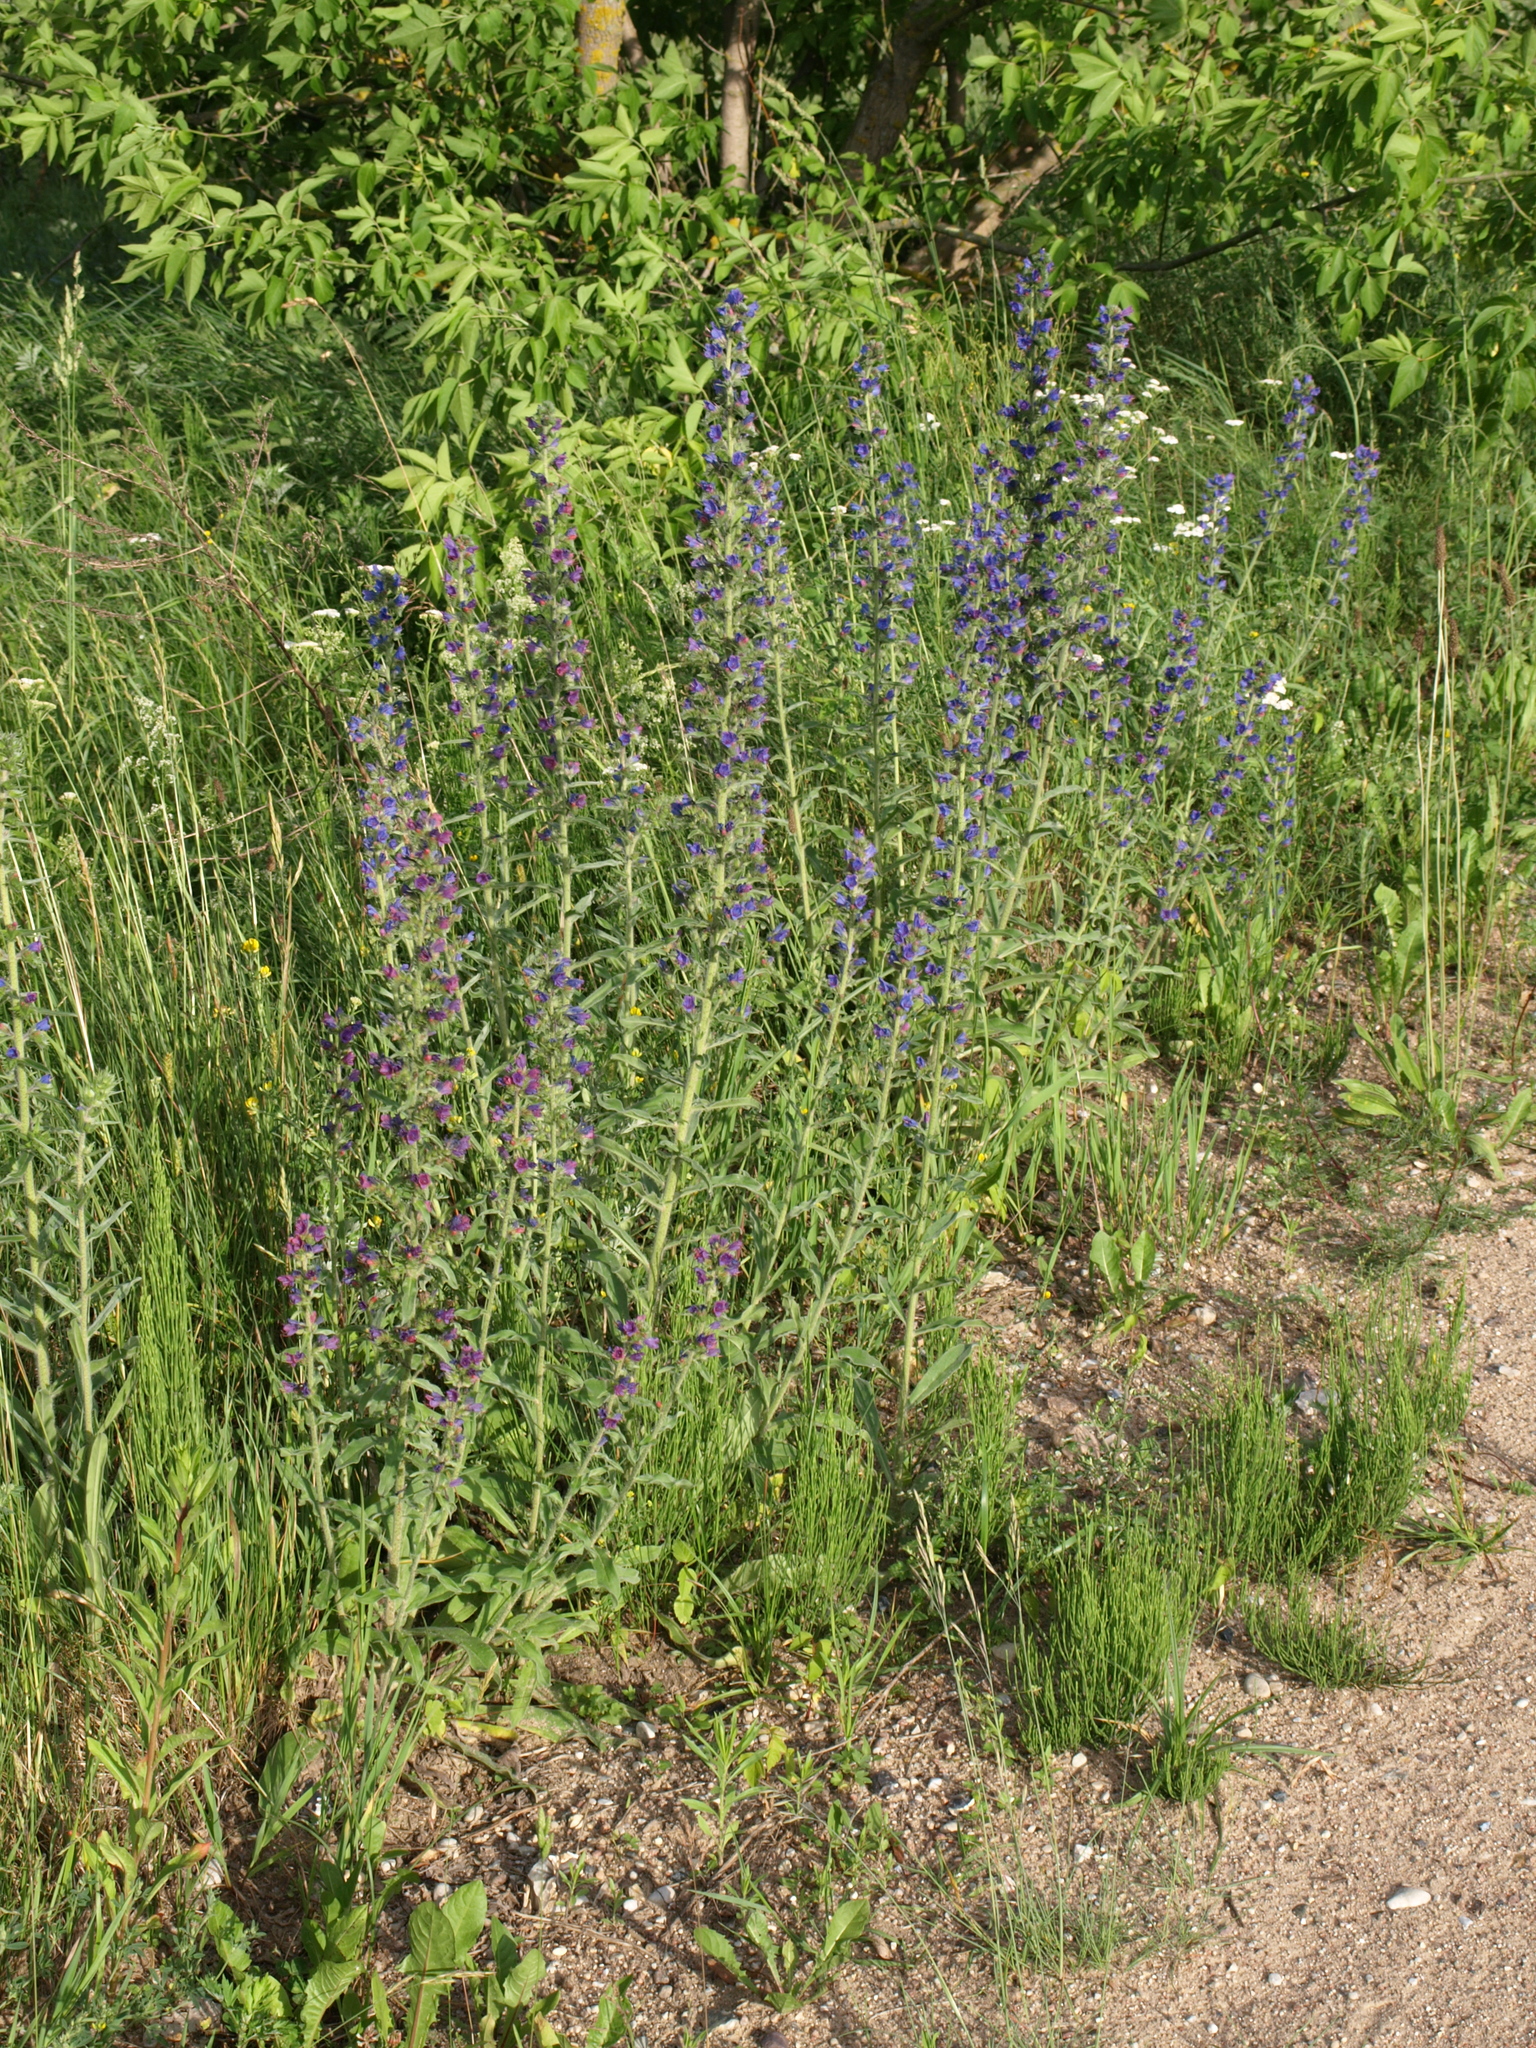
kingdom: Plantae
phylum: Tracheophyta
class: Magnoliopsida
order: Boraginales
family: Boraginaceae
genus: Echium
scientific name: Echium vulgare
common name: Common viper's bugloss
